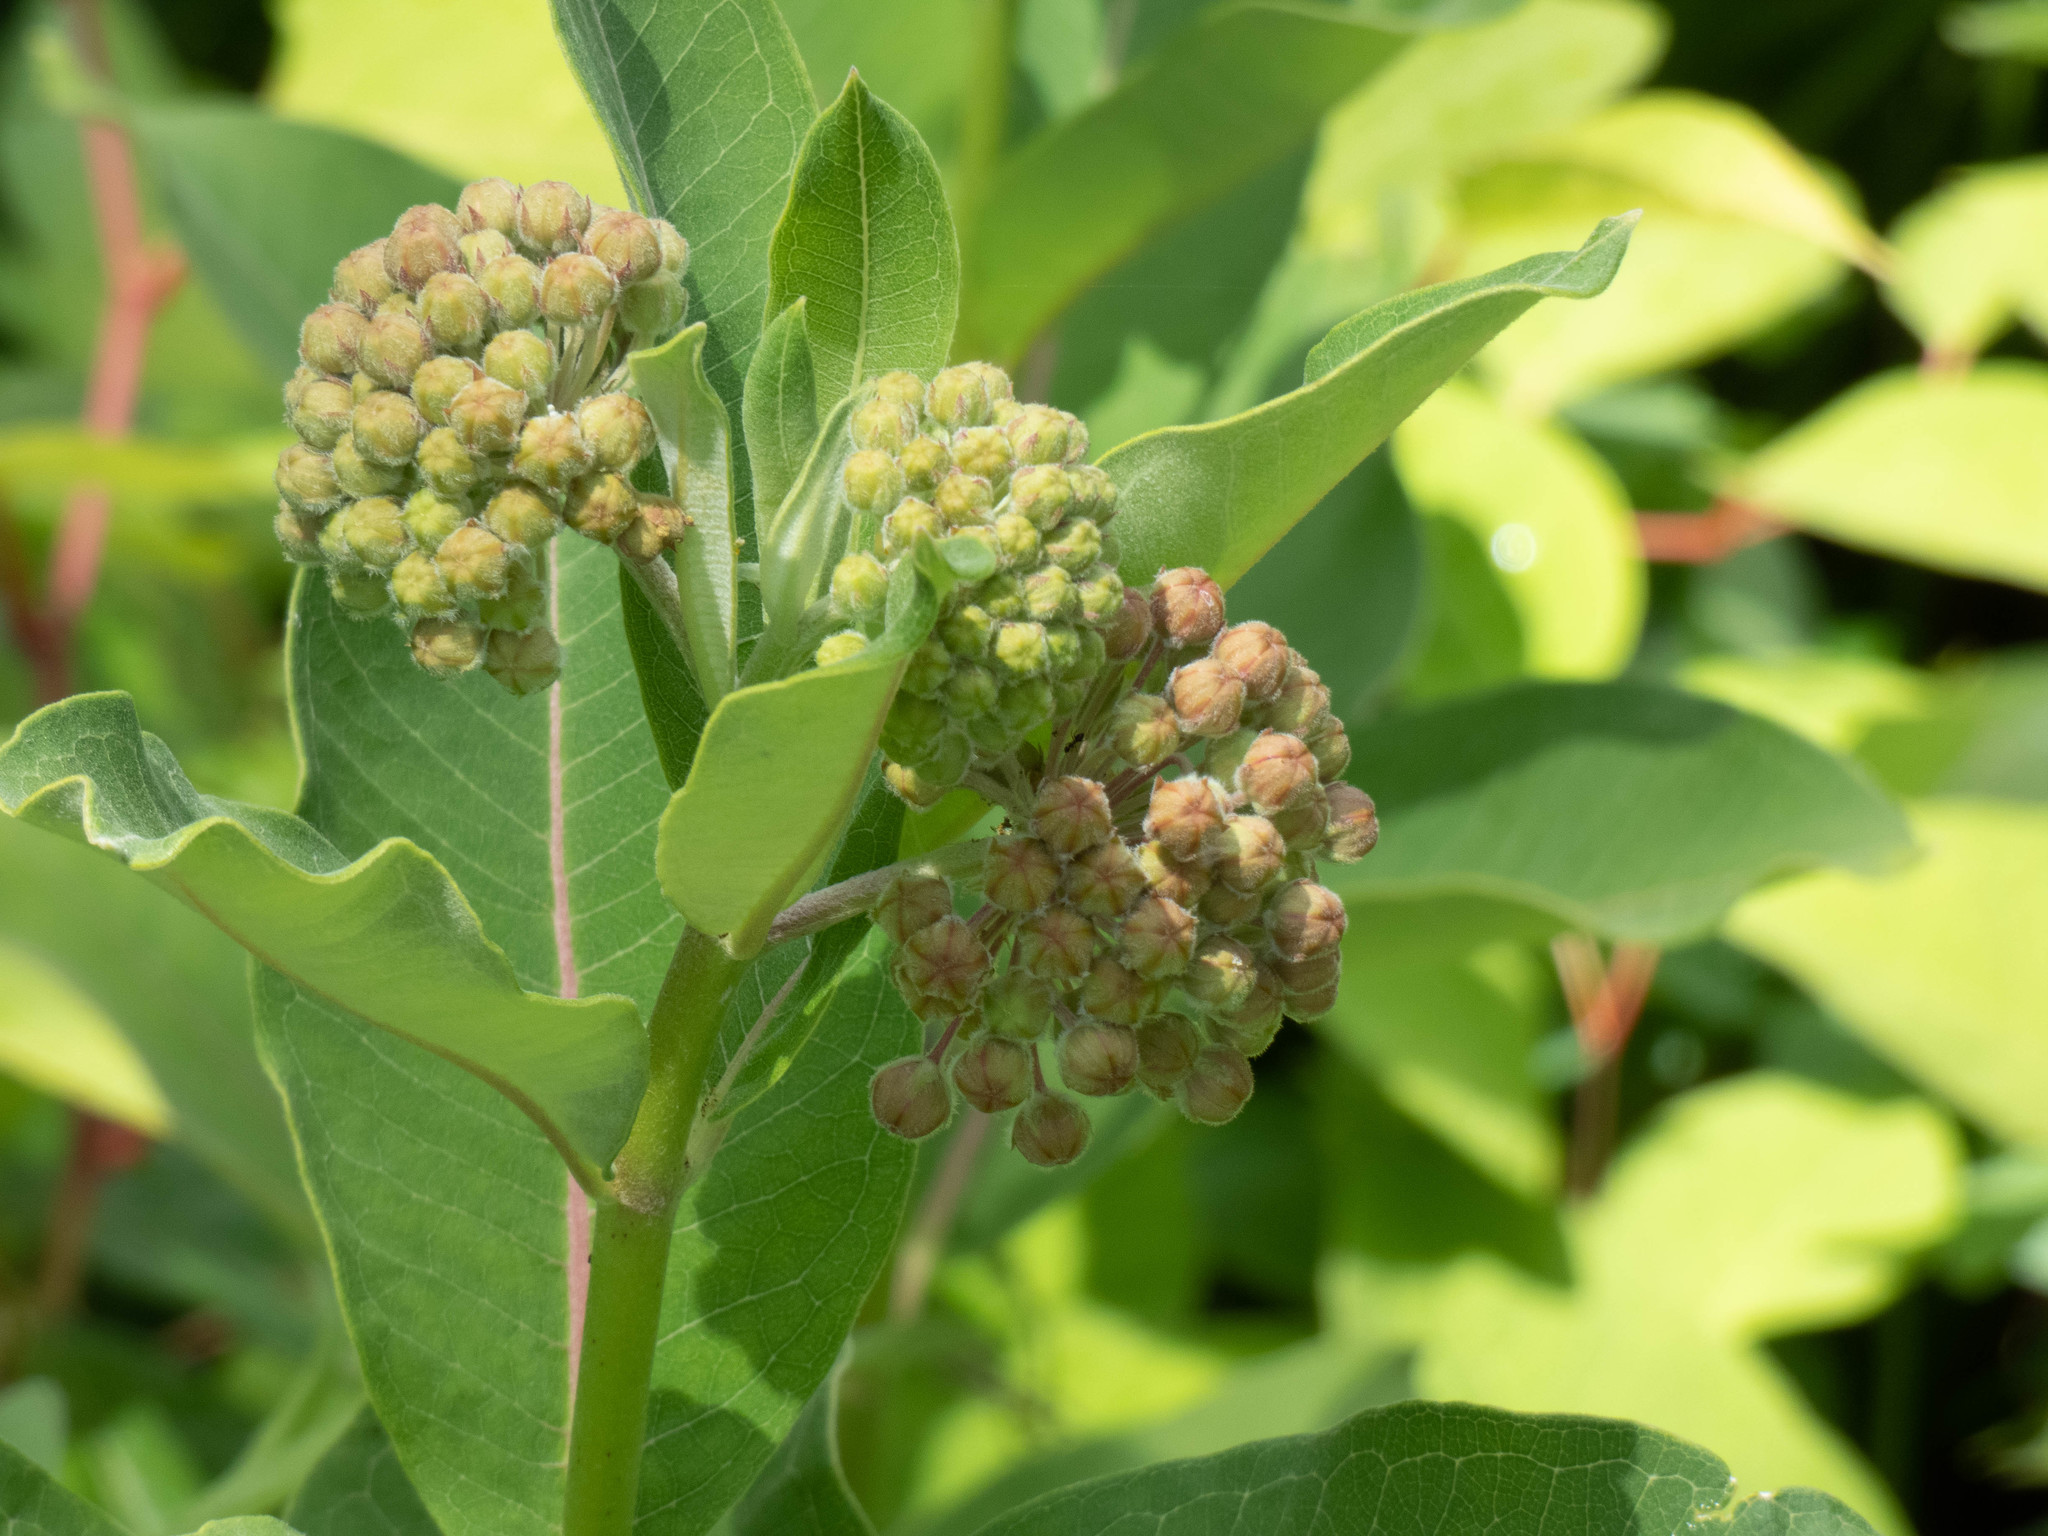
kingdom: Plantae
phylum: Tracheophyta
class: Magnoliopsida
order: Gentianales
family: Apocynaceae
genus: Asclepias
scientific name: Asclepias syriaca
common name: Common milkweed
